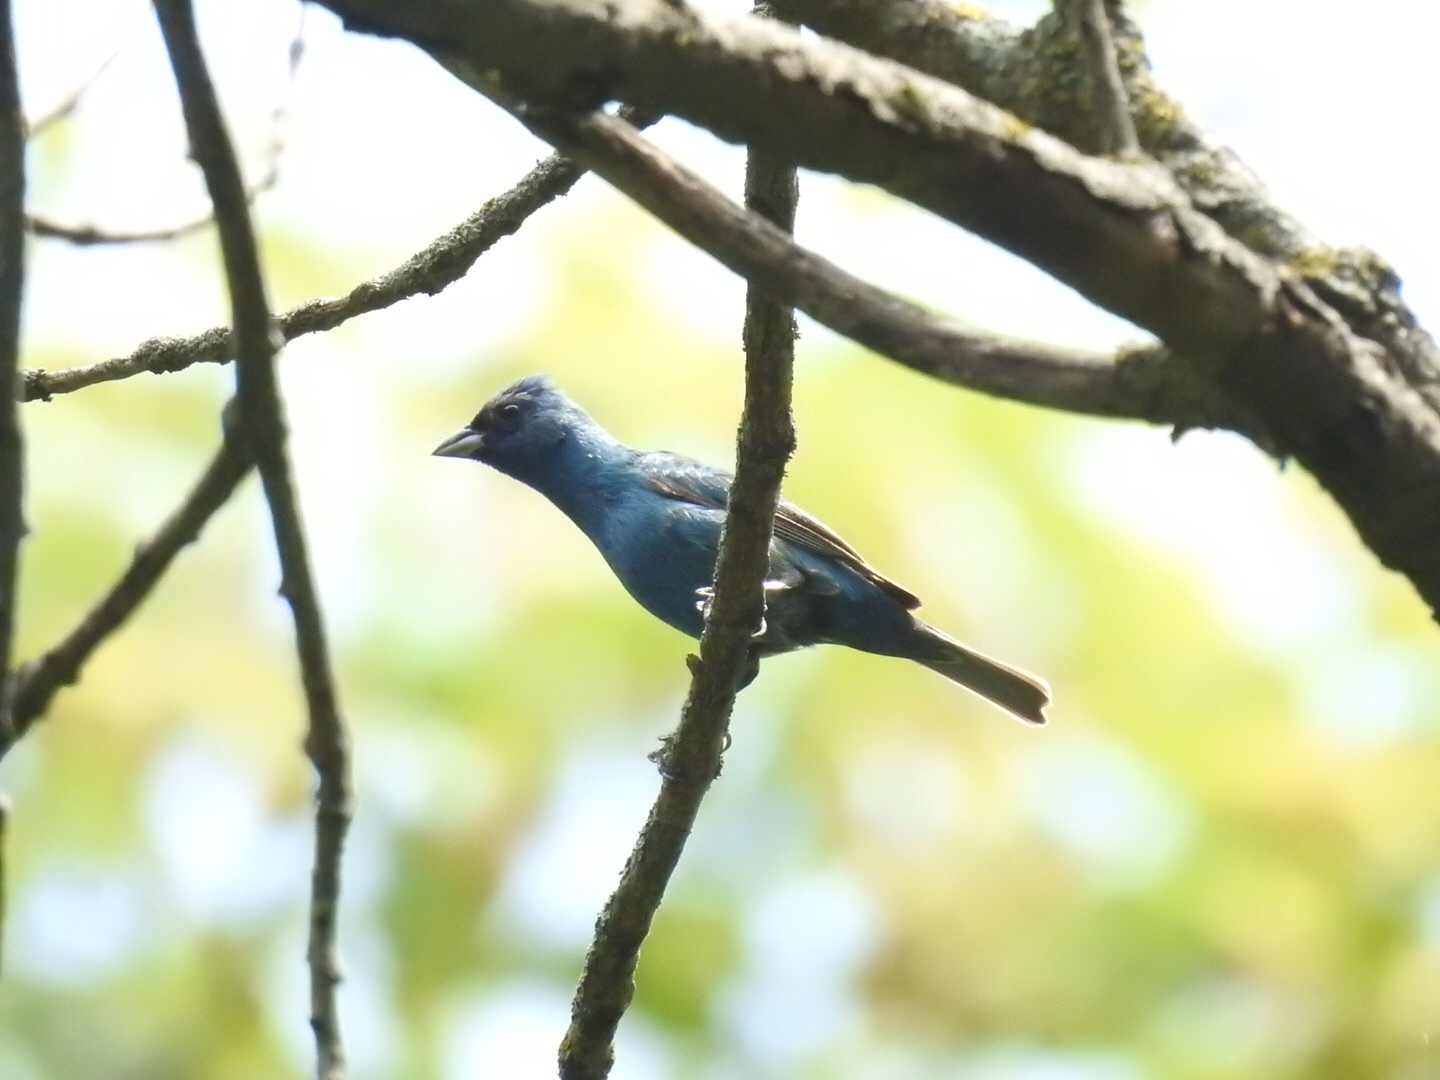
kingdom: Animalia
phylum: Chordata
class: Aves
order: Passeriformes
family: Cardinalidae
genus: Passerina
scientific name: Passerina cyanea
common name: Indigo bunting
